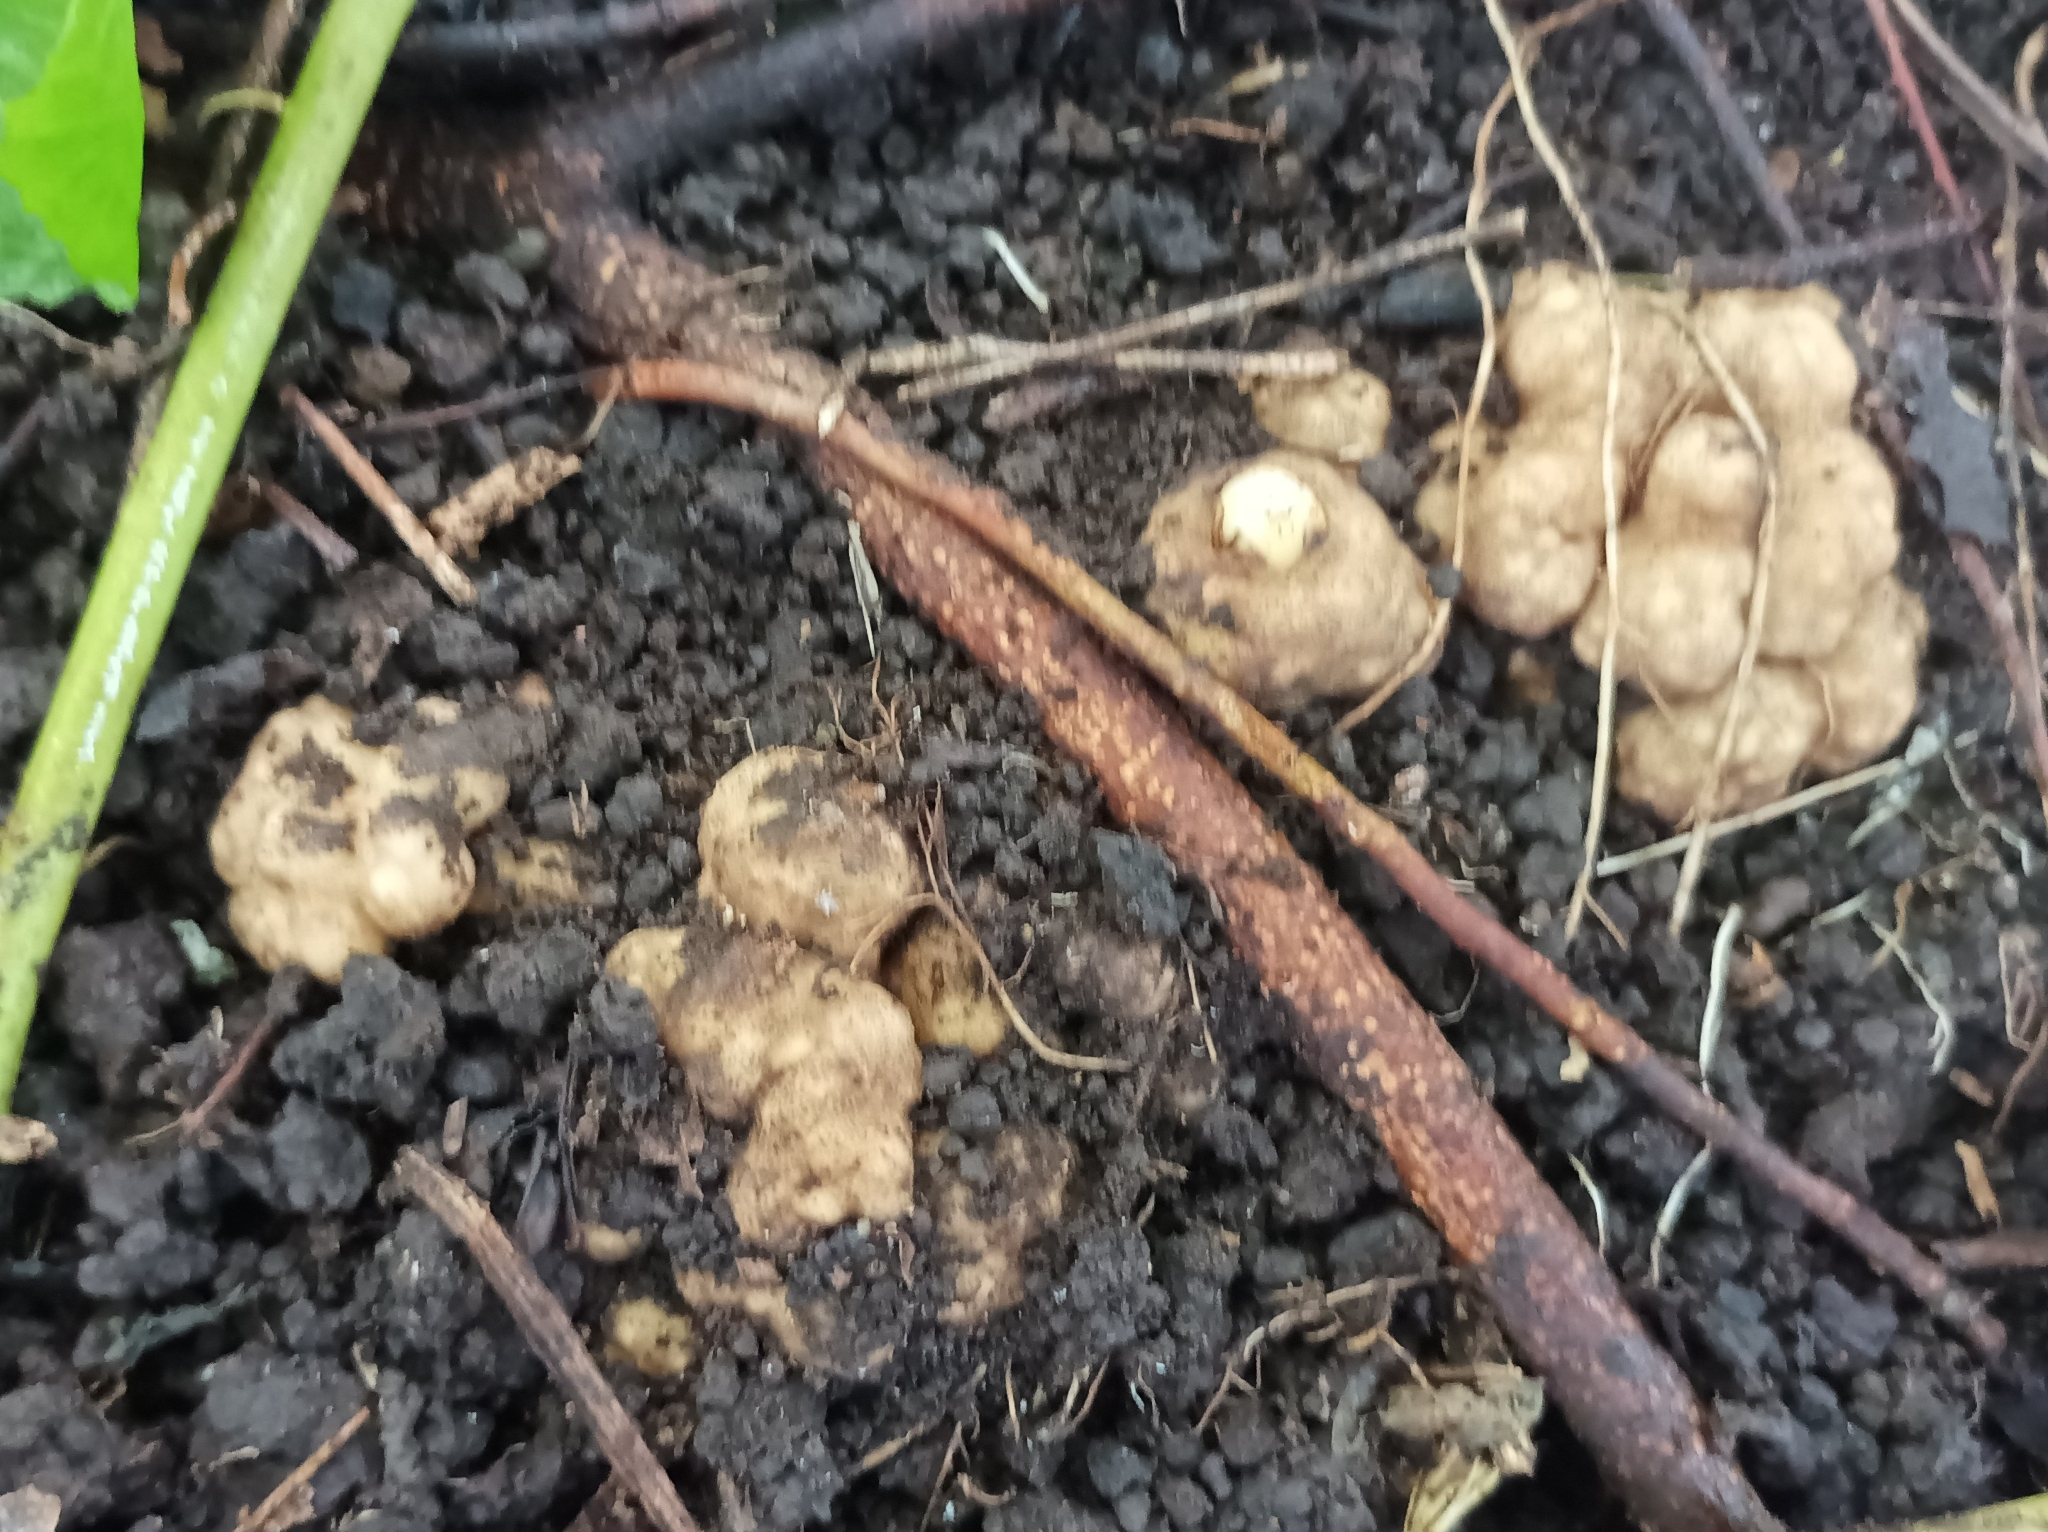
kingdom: Plantae
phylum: Tracheophyta
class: Magnoliopsida
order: Santalales
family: Balanophoraceae
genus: Balanophora
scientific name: Balanophora fungosa
